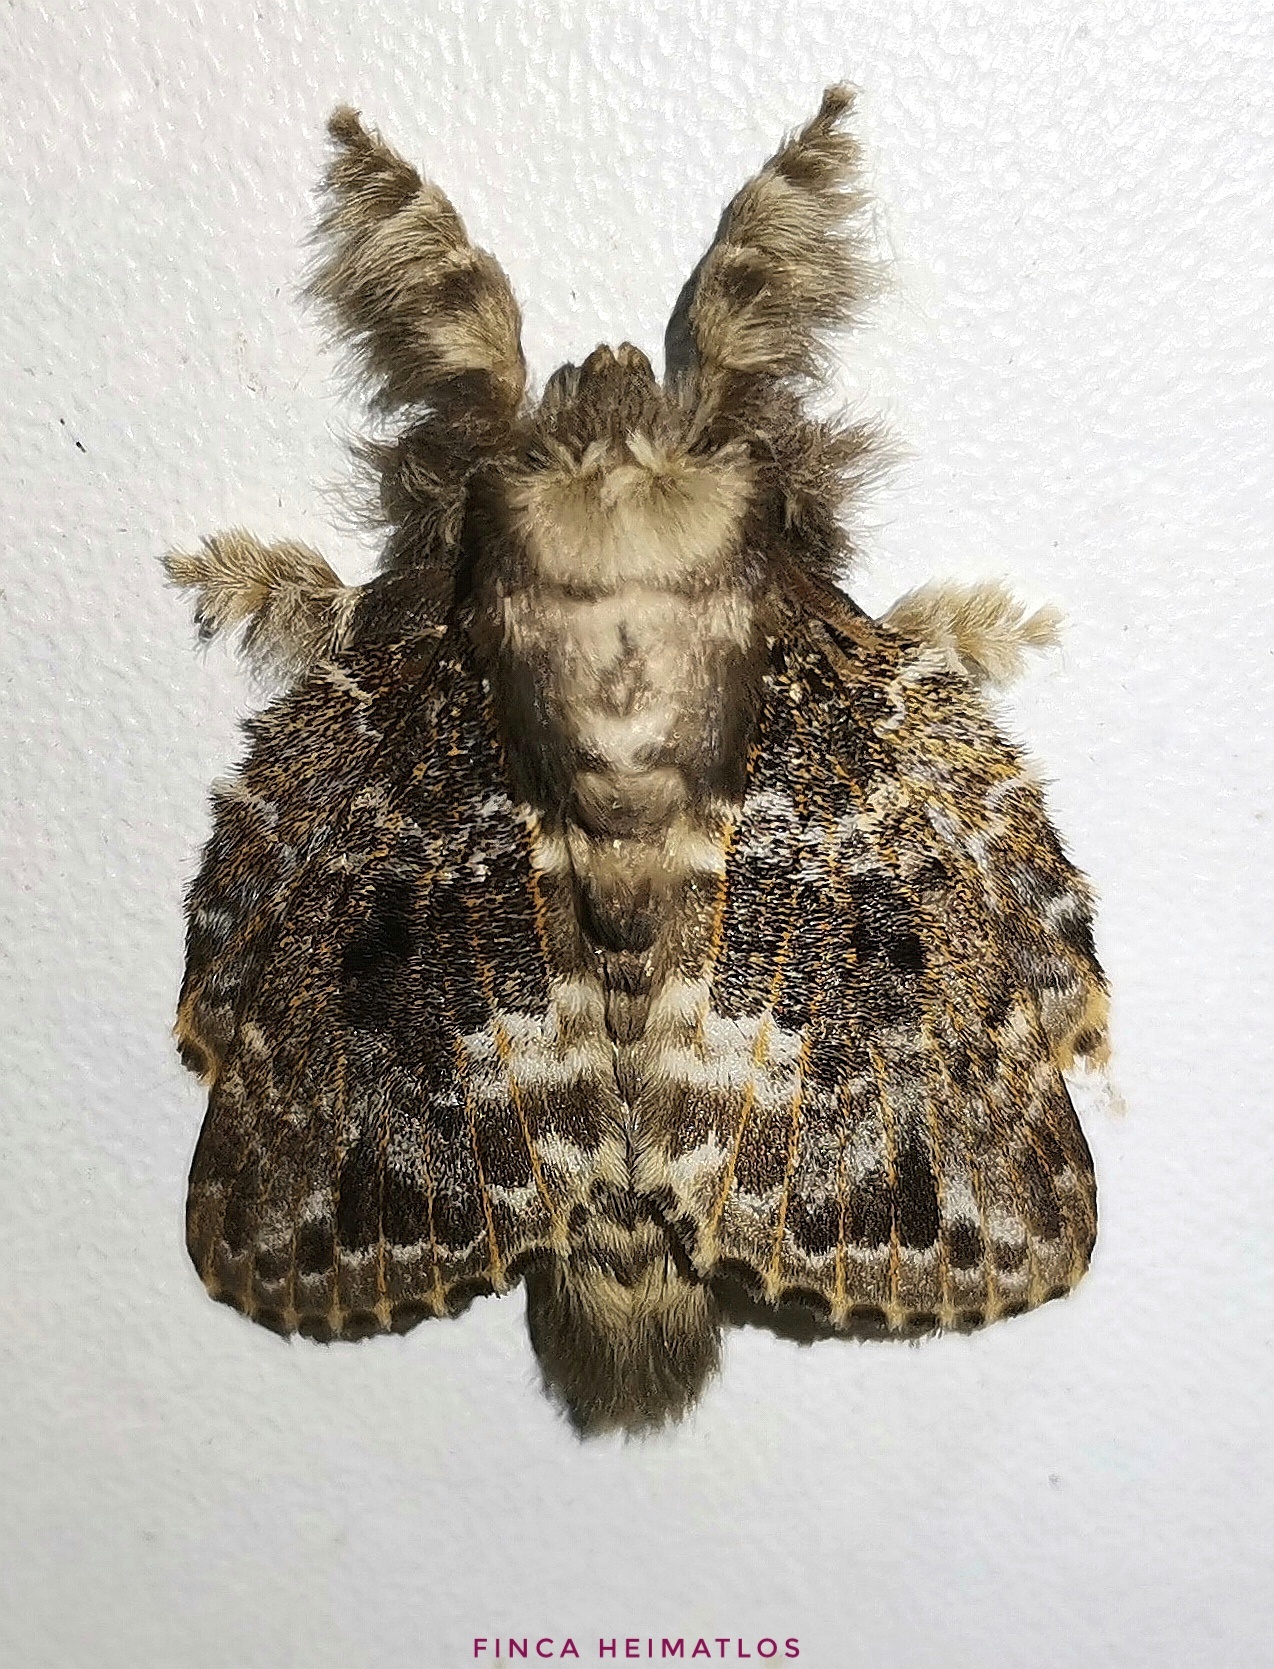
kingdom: Animalia
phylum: Arthropoda
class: Insecta
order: Lepidoptera
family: Lasiocampidae
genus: Euglyphis
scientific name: Euglyphis claudia
